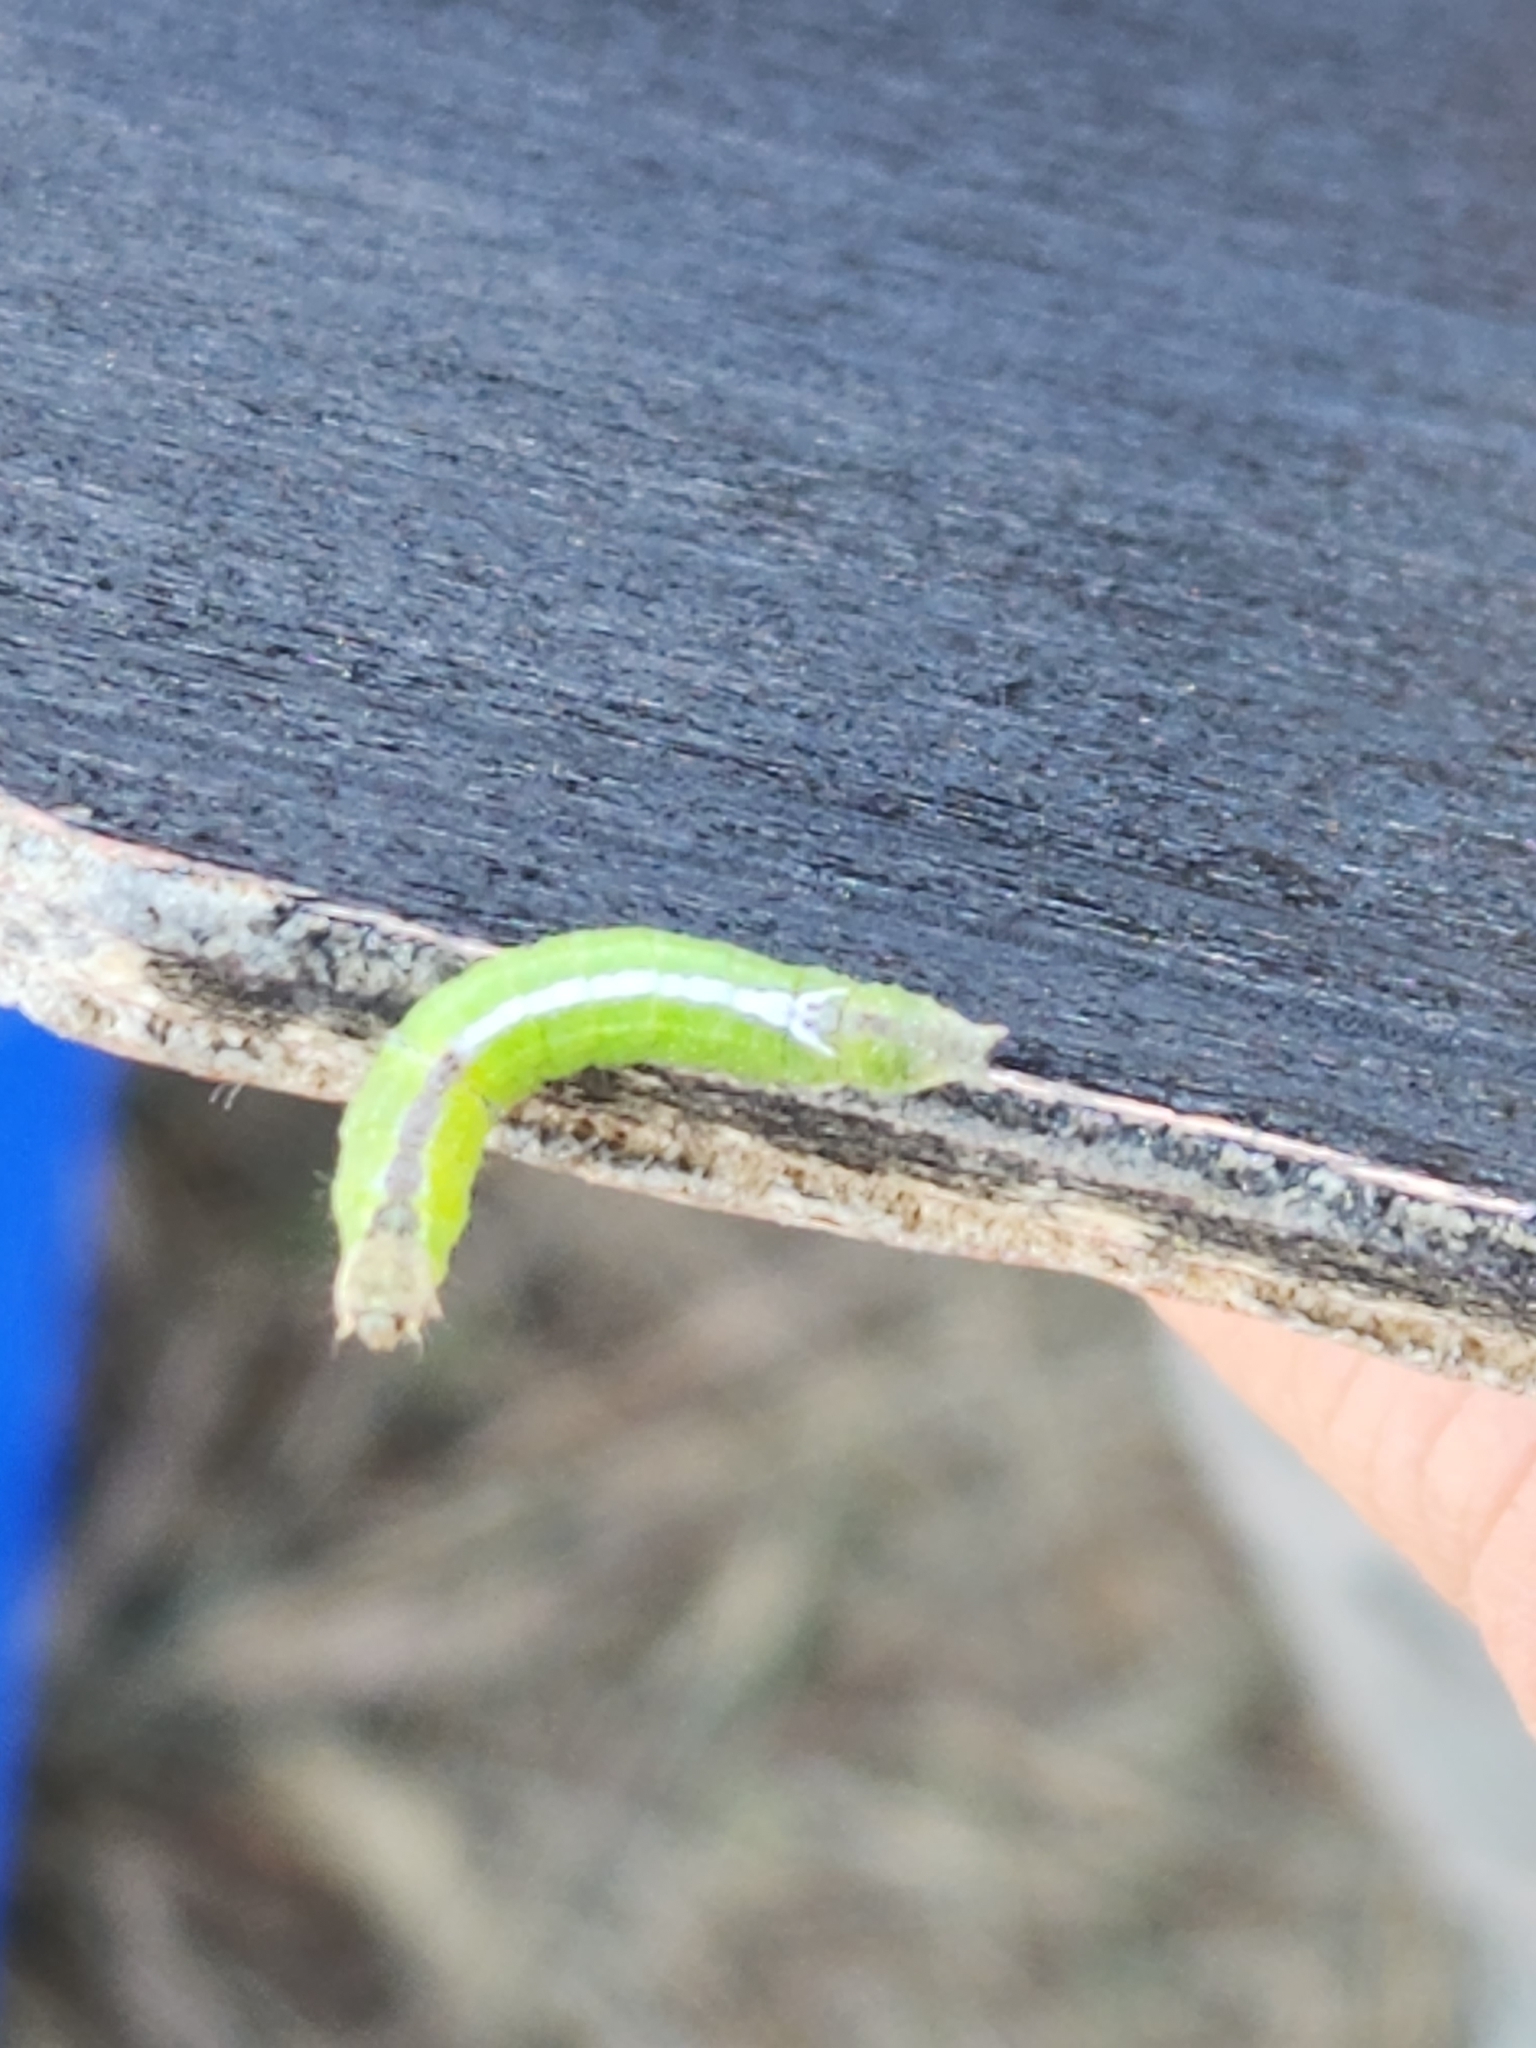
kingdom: Animalia
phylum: Arthropoda
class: Insecta
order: Lepidoptera
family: Notodontidae
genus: Schizura
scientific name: Schizura
